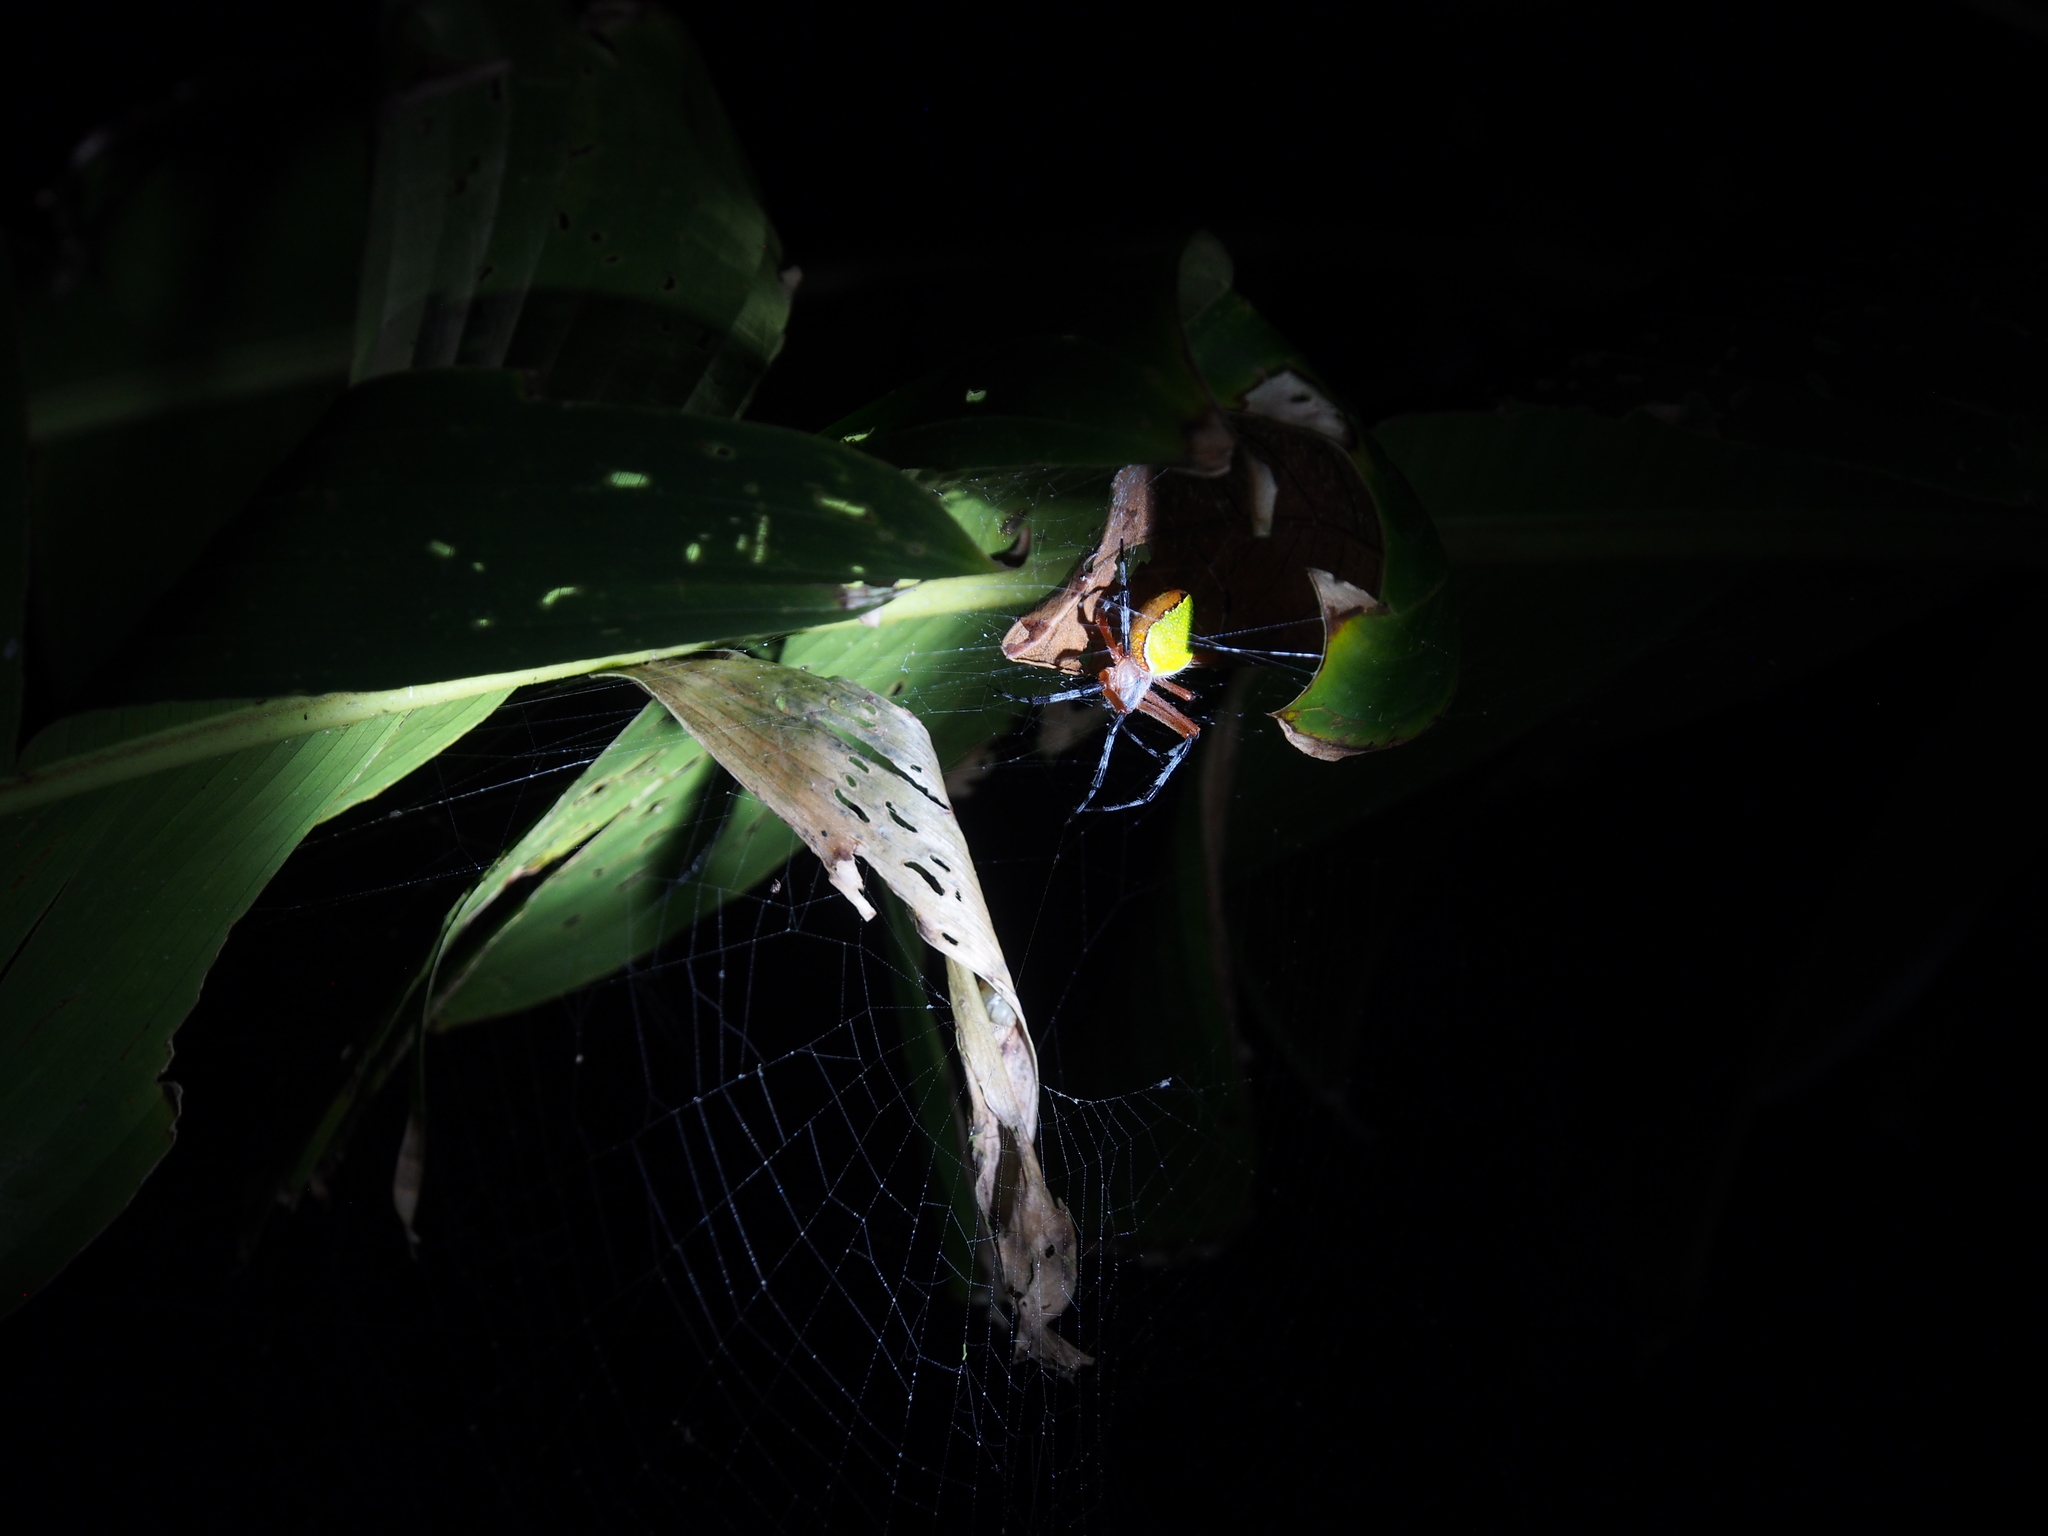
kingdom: Animalia
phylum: Arthropoda
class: Arachnida
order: Araneae
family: Araneidae
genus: Eriophora
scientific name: Eriophora nephiloides
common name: Orb weavers
